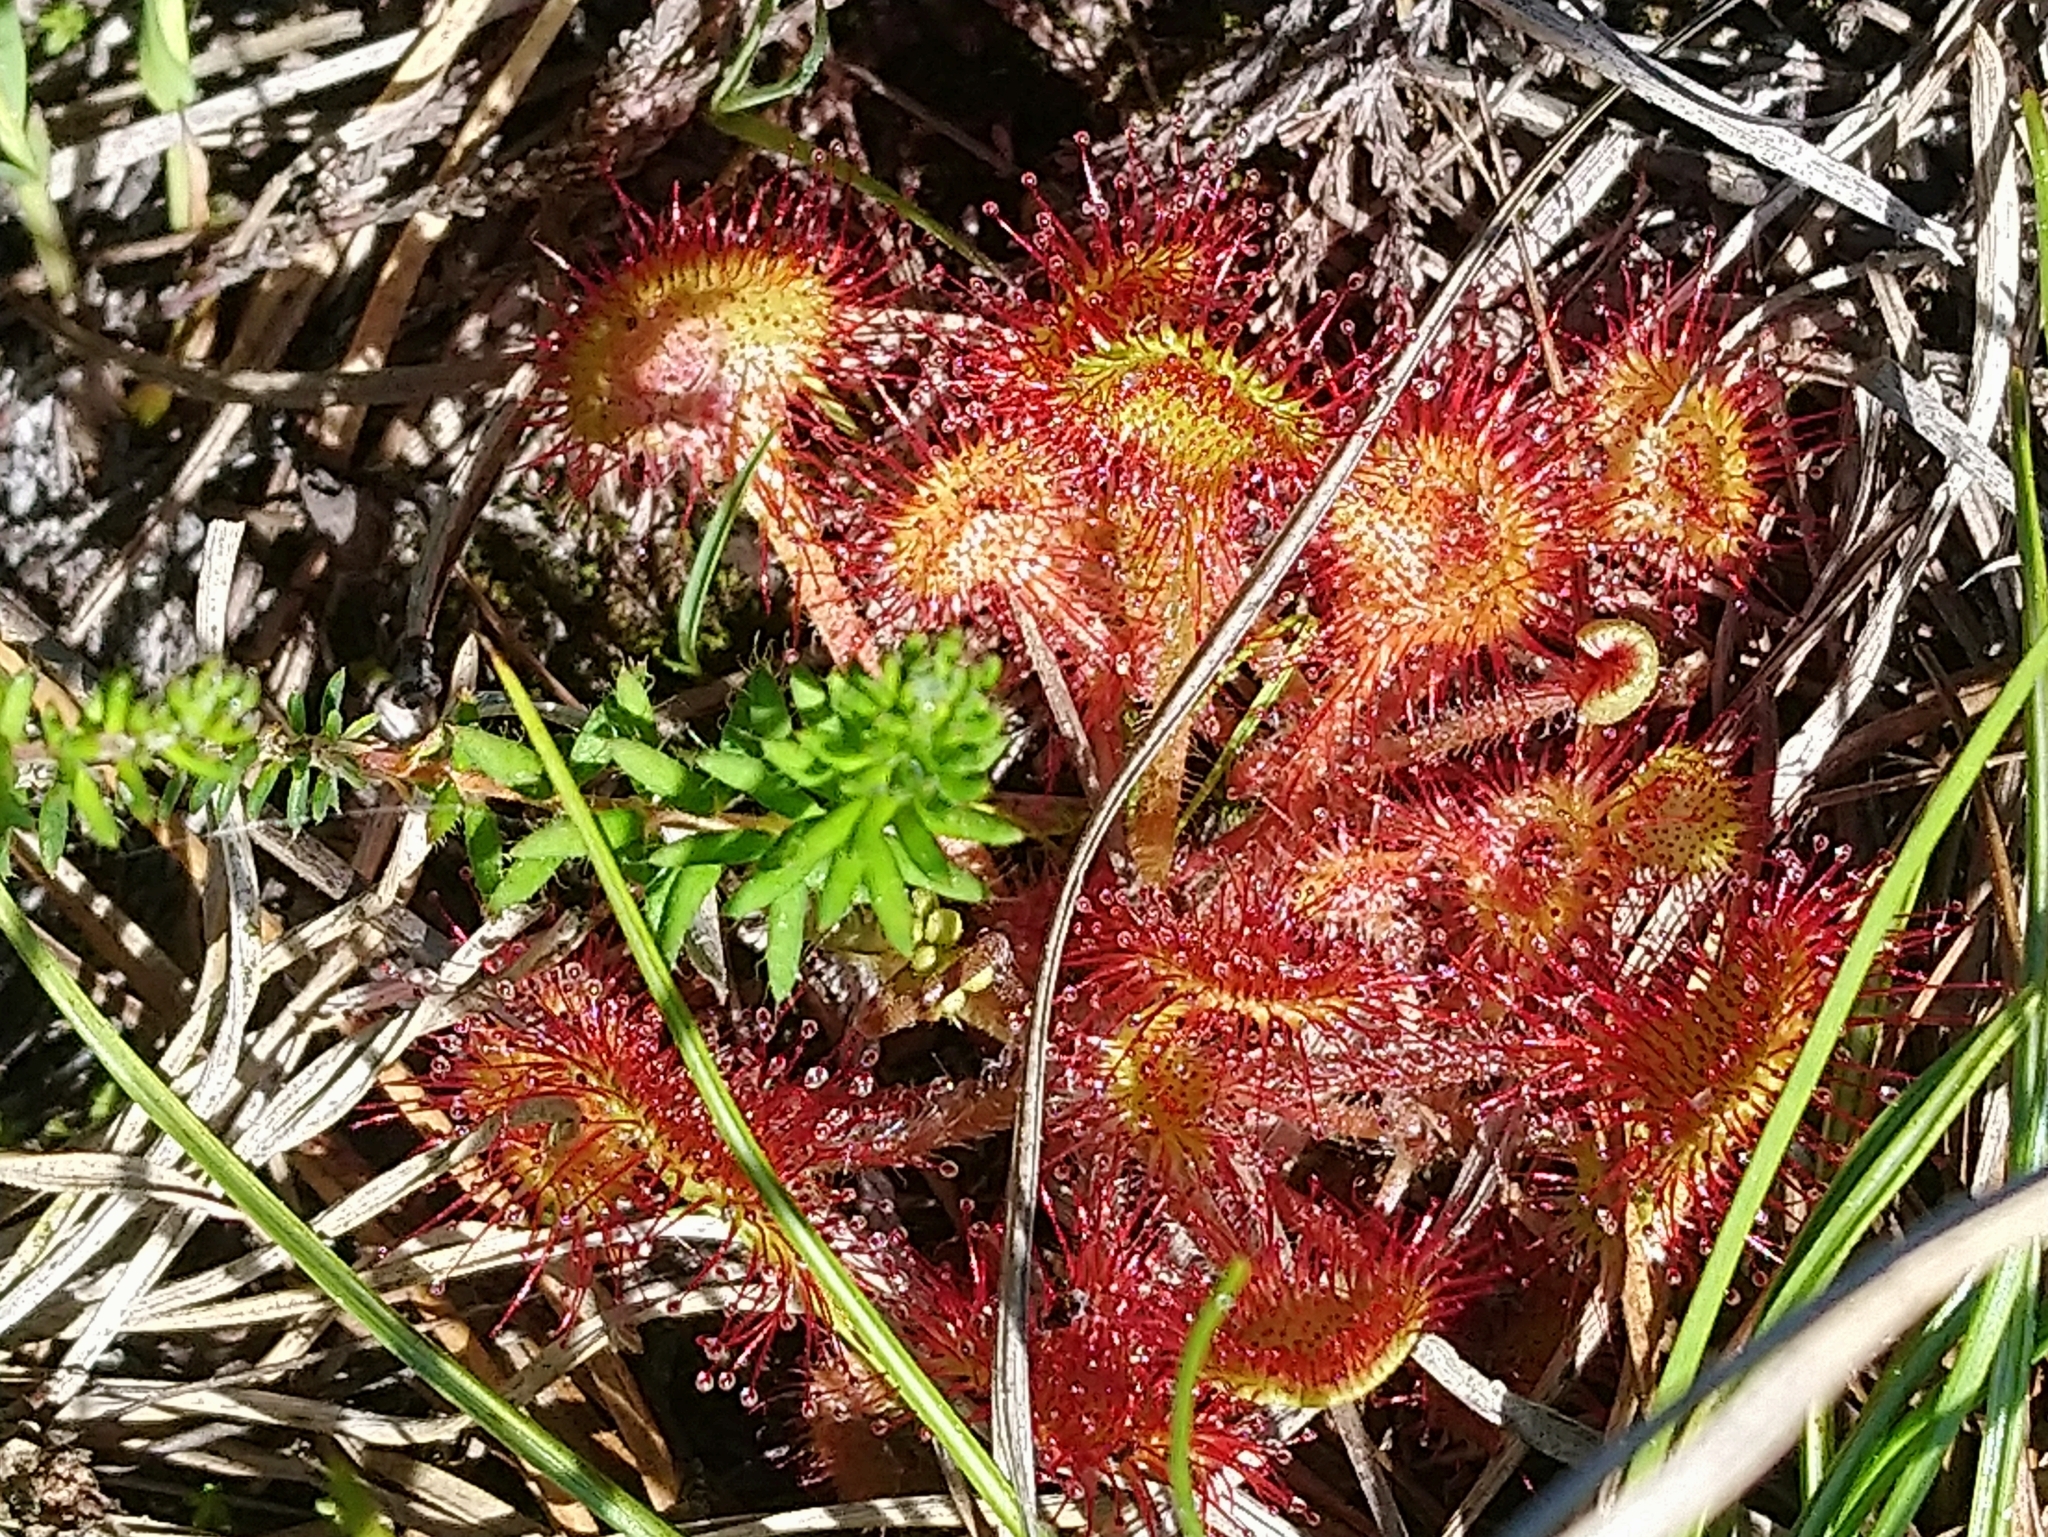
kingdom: Plantae
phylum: Tracheophyta
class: Magnoliopsida
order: Caryophyllales
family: Droseraceae
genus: Drosera
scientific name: Drosera rotundifolia
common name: Round-leaved sundew
